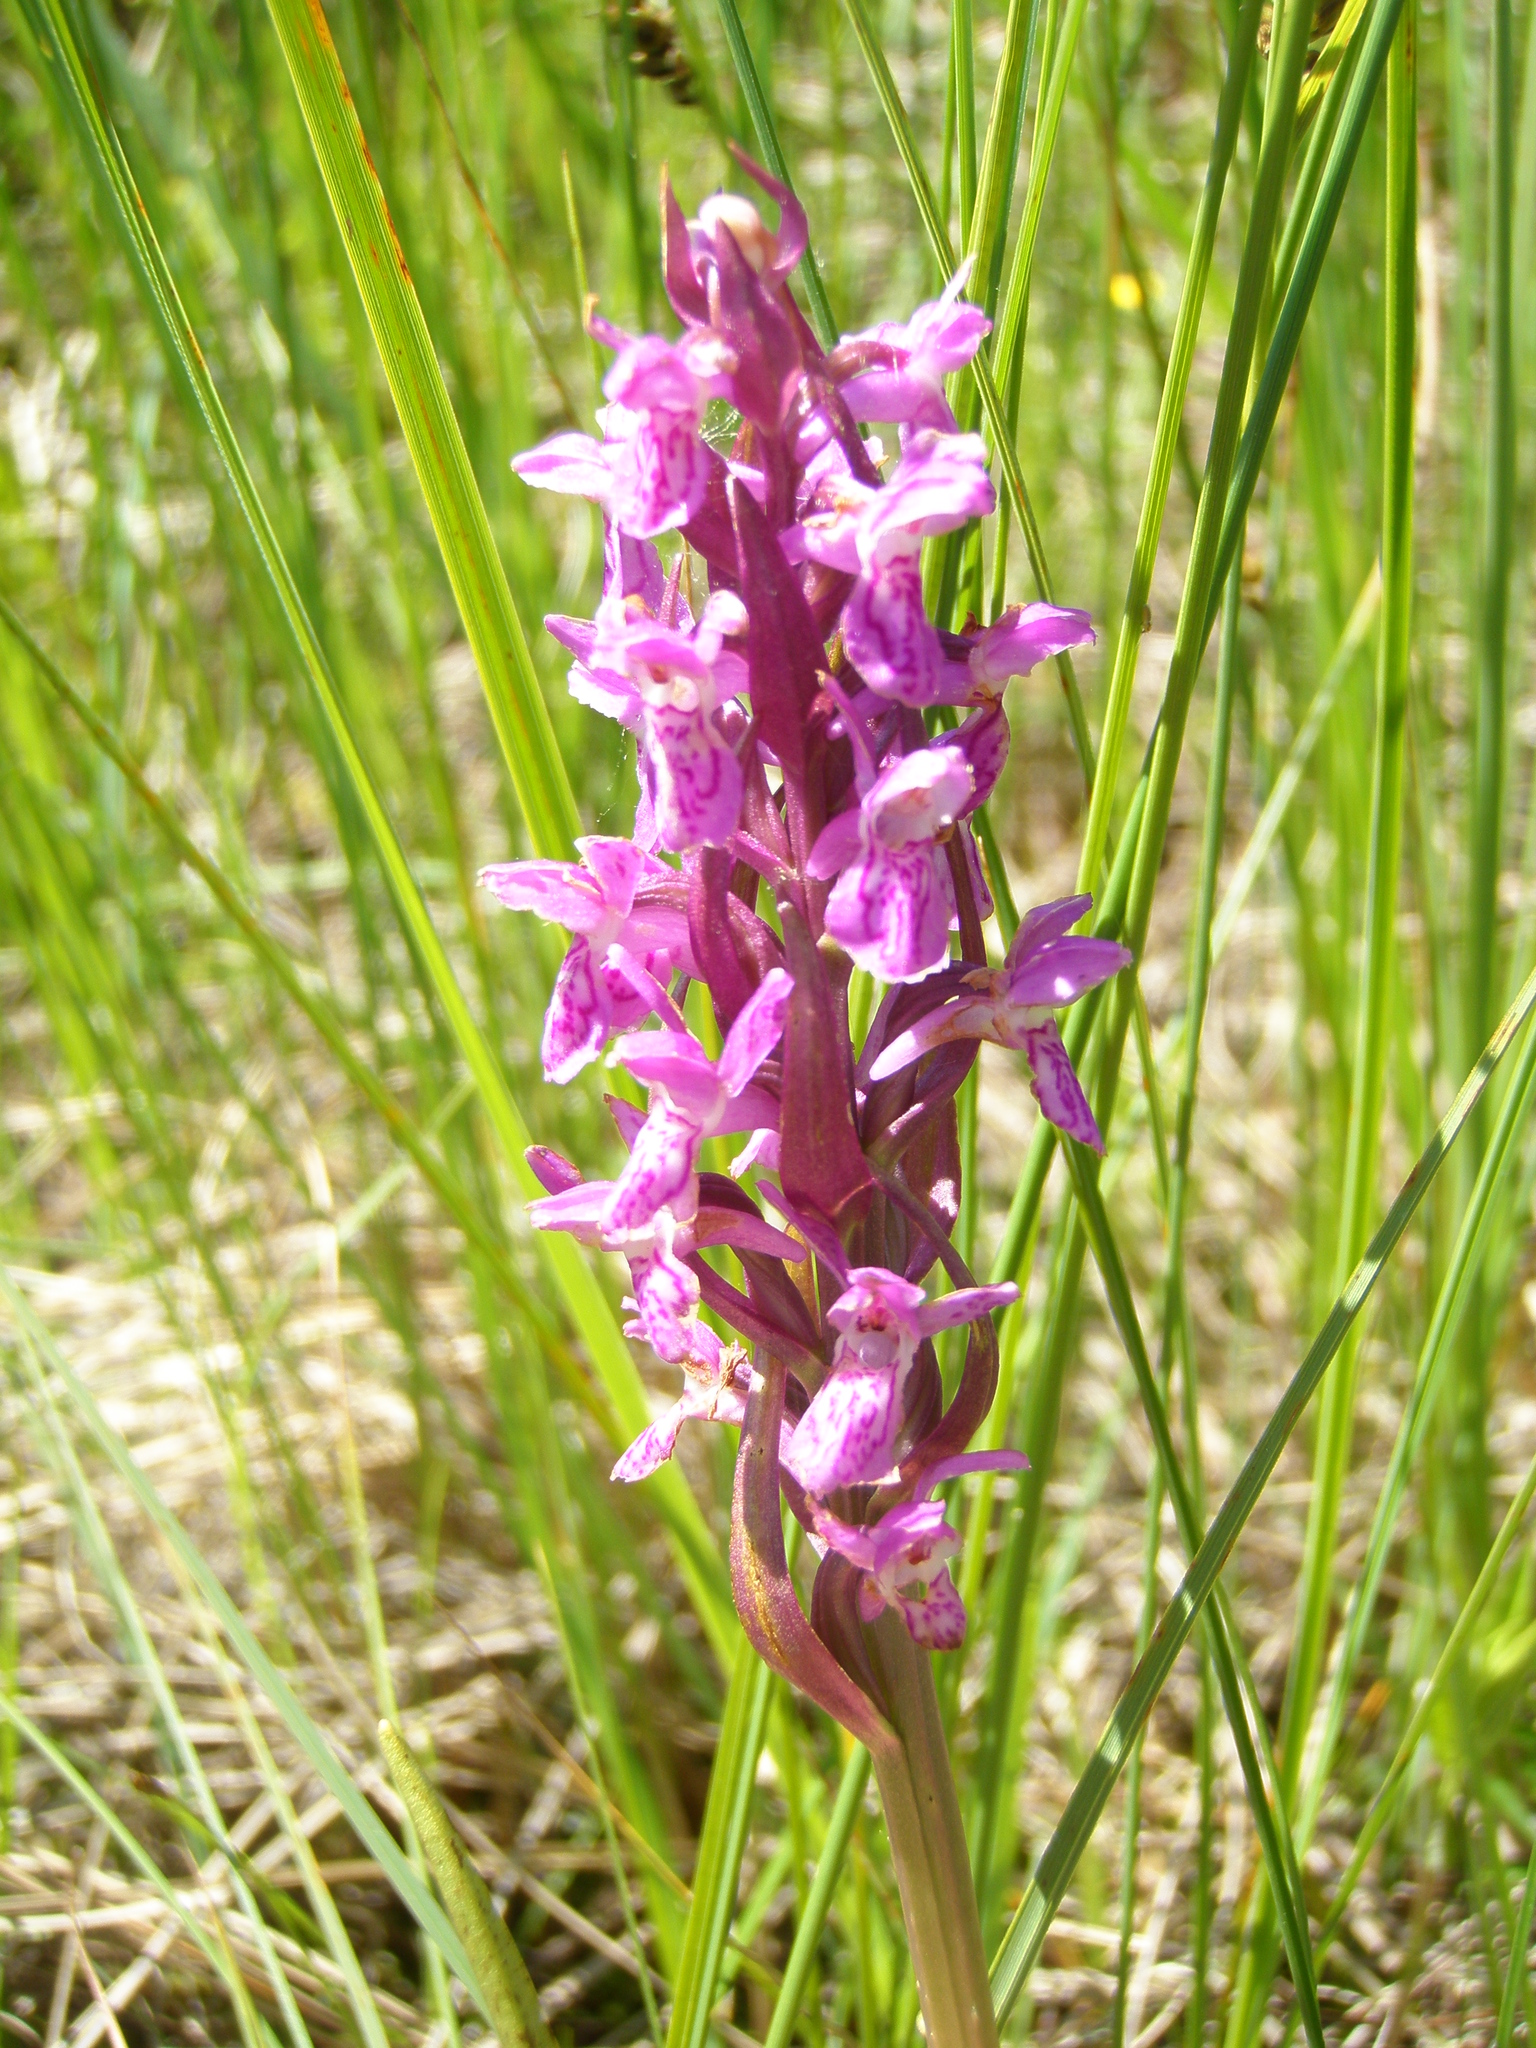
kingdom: Plantae
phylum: Tracheophyta
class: Liliopsida
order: Asparagales
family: Orchidaceae
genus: Dactylorhiza
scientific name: Dactylorhiza incarnata
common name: Early marsh-orchid
